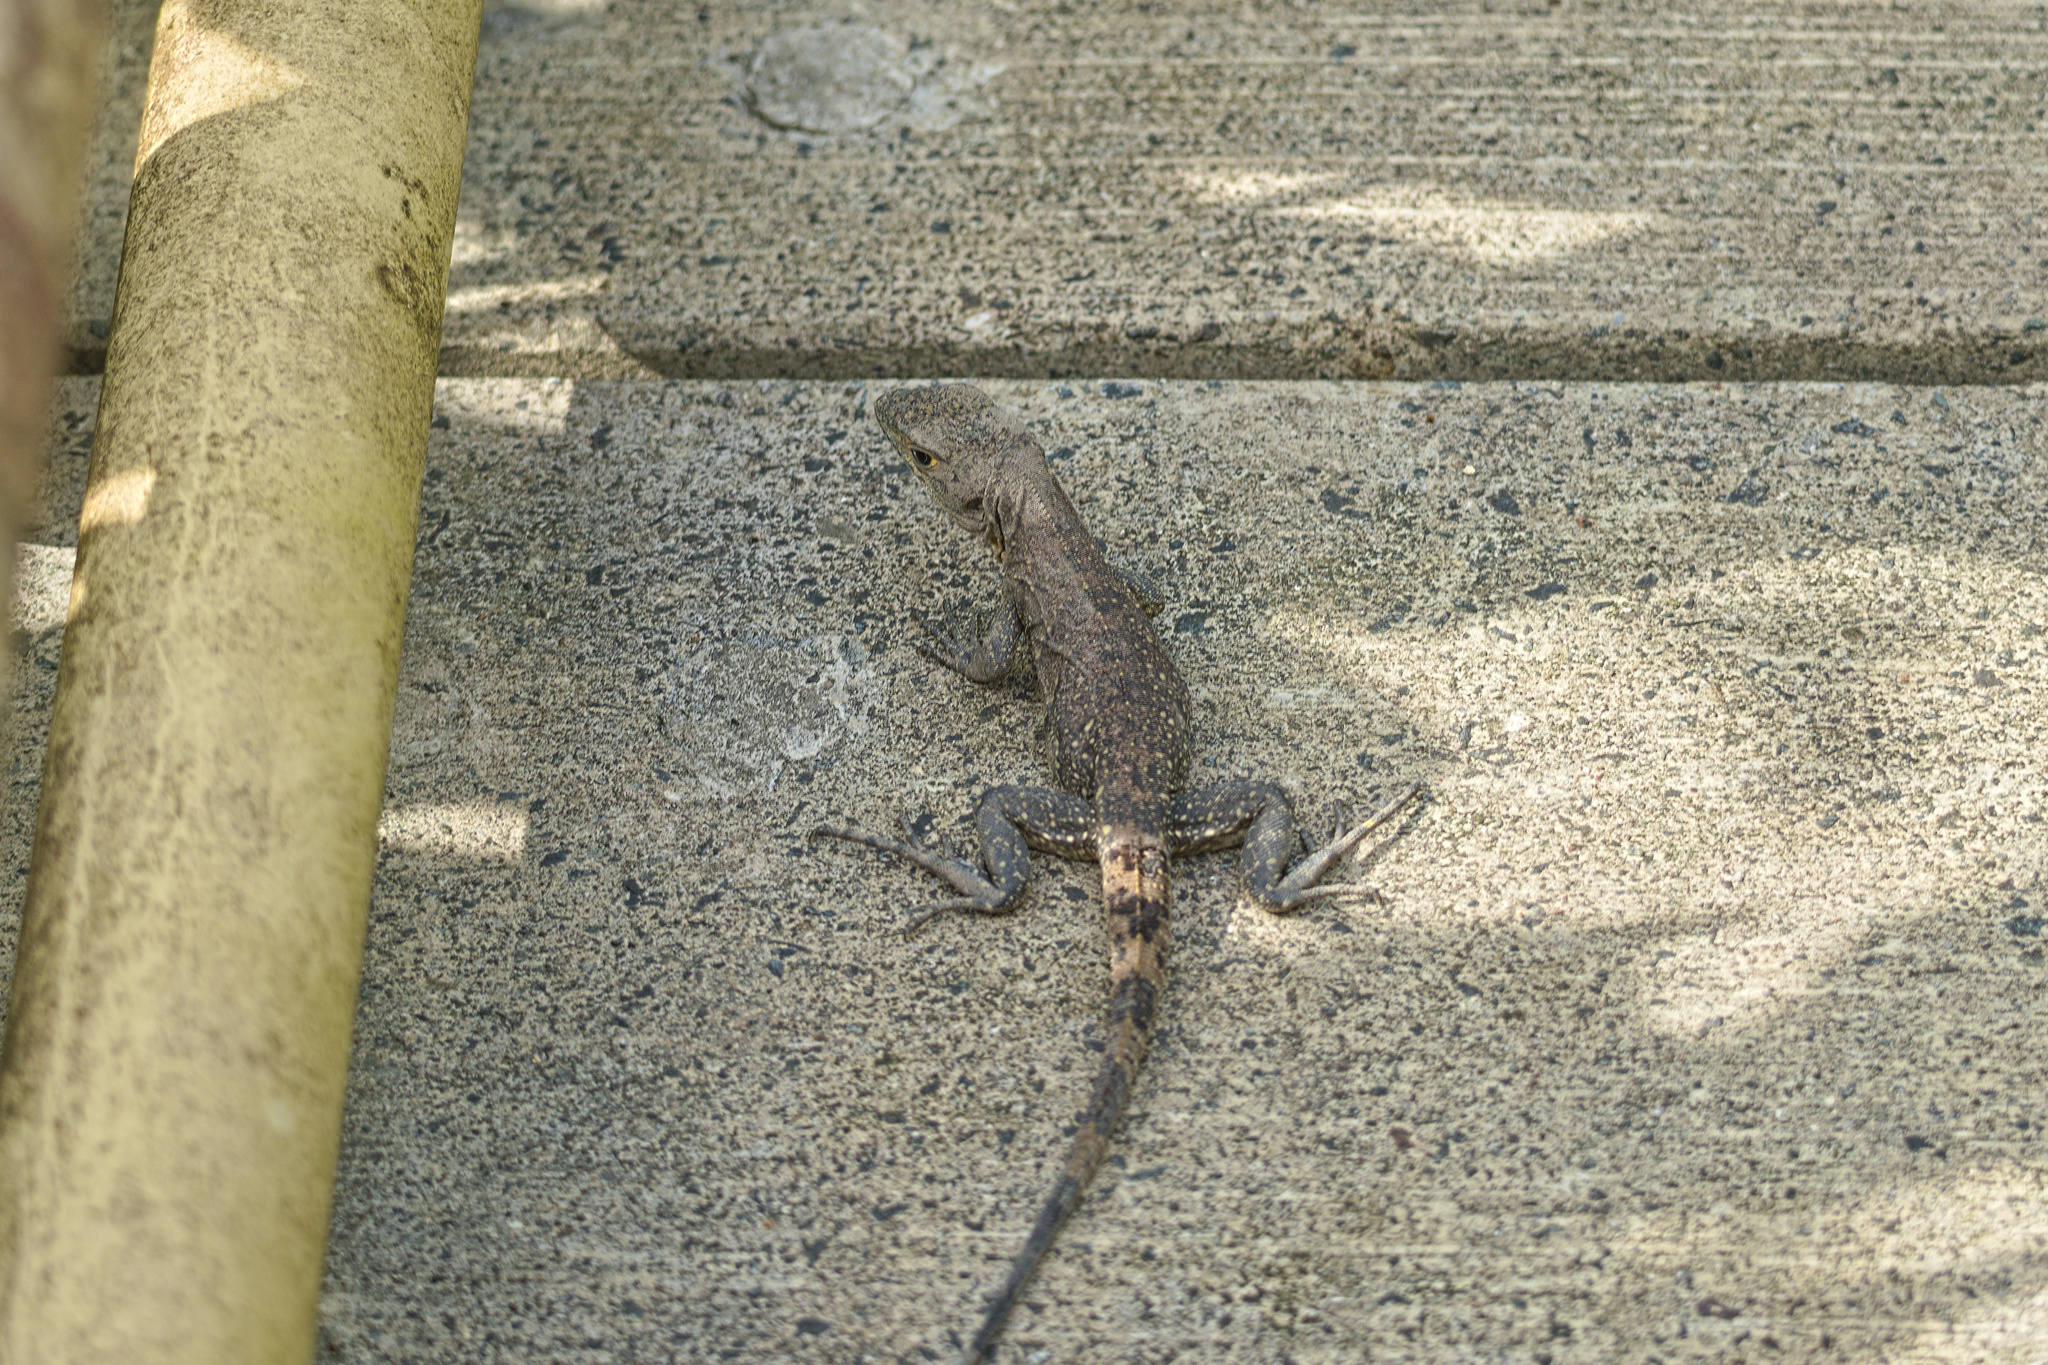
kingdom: Animalia
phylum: Chordata
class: Squamata
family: Iguanidae
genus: Ctenosaura
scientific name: Ctenosaura similis
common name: Black spiny-tailed iguana
